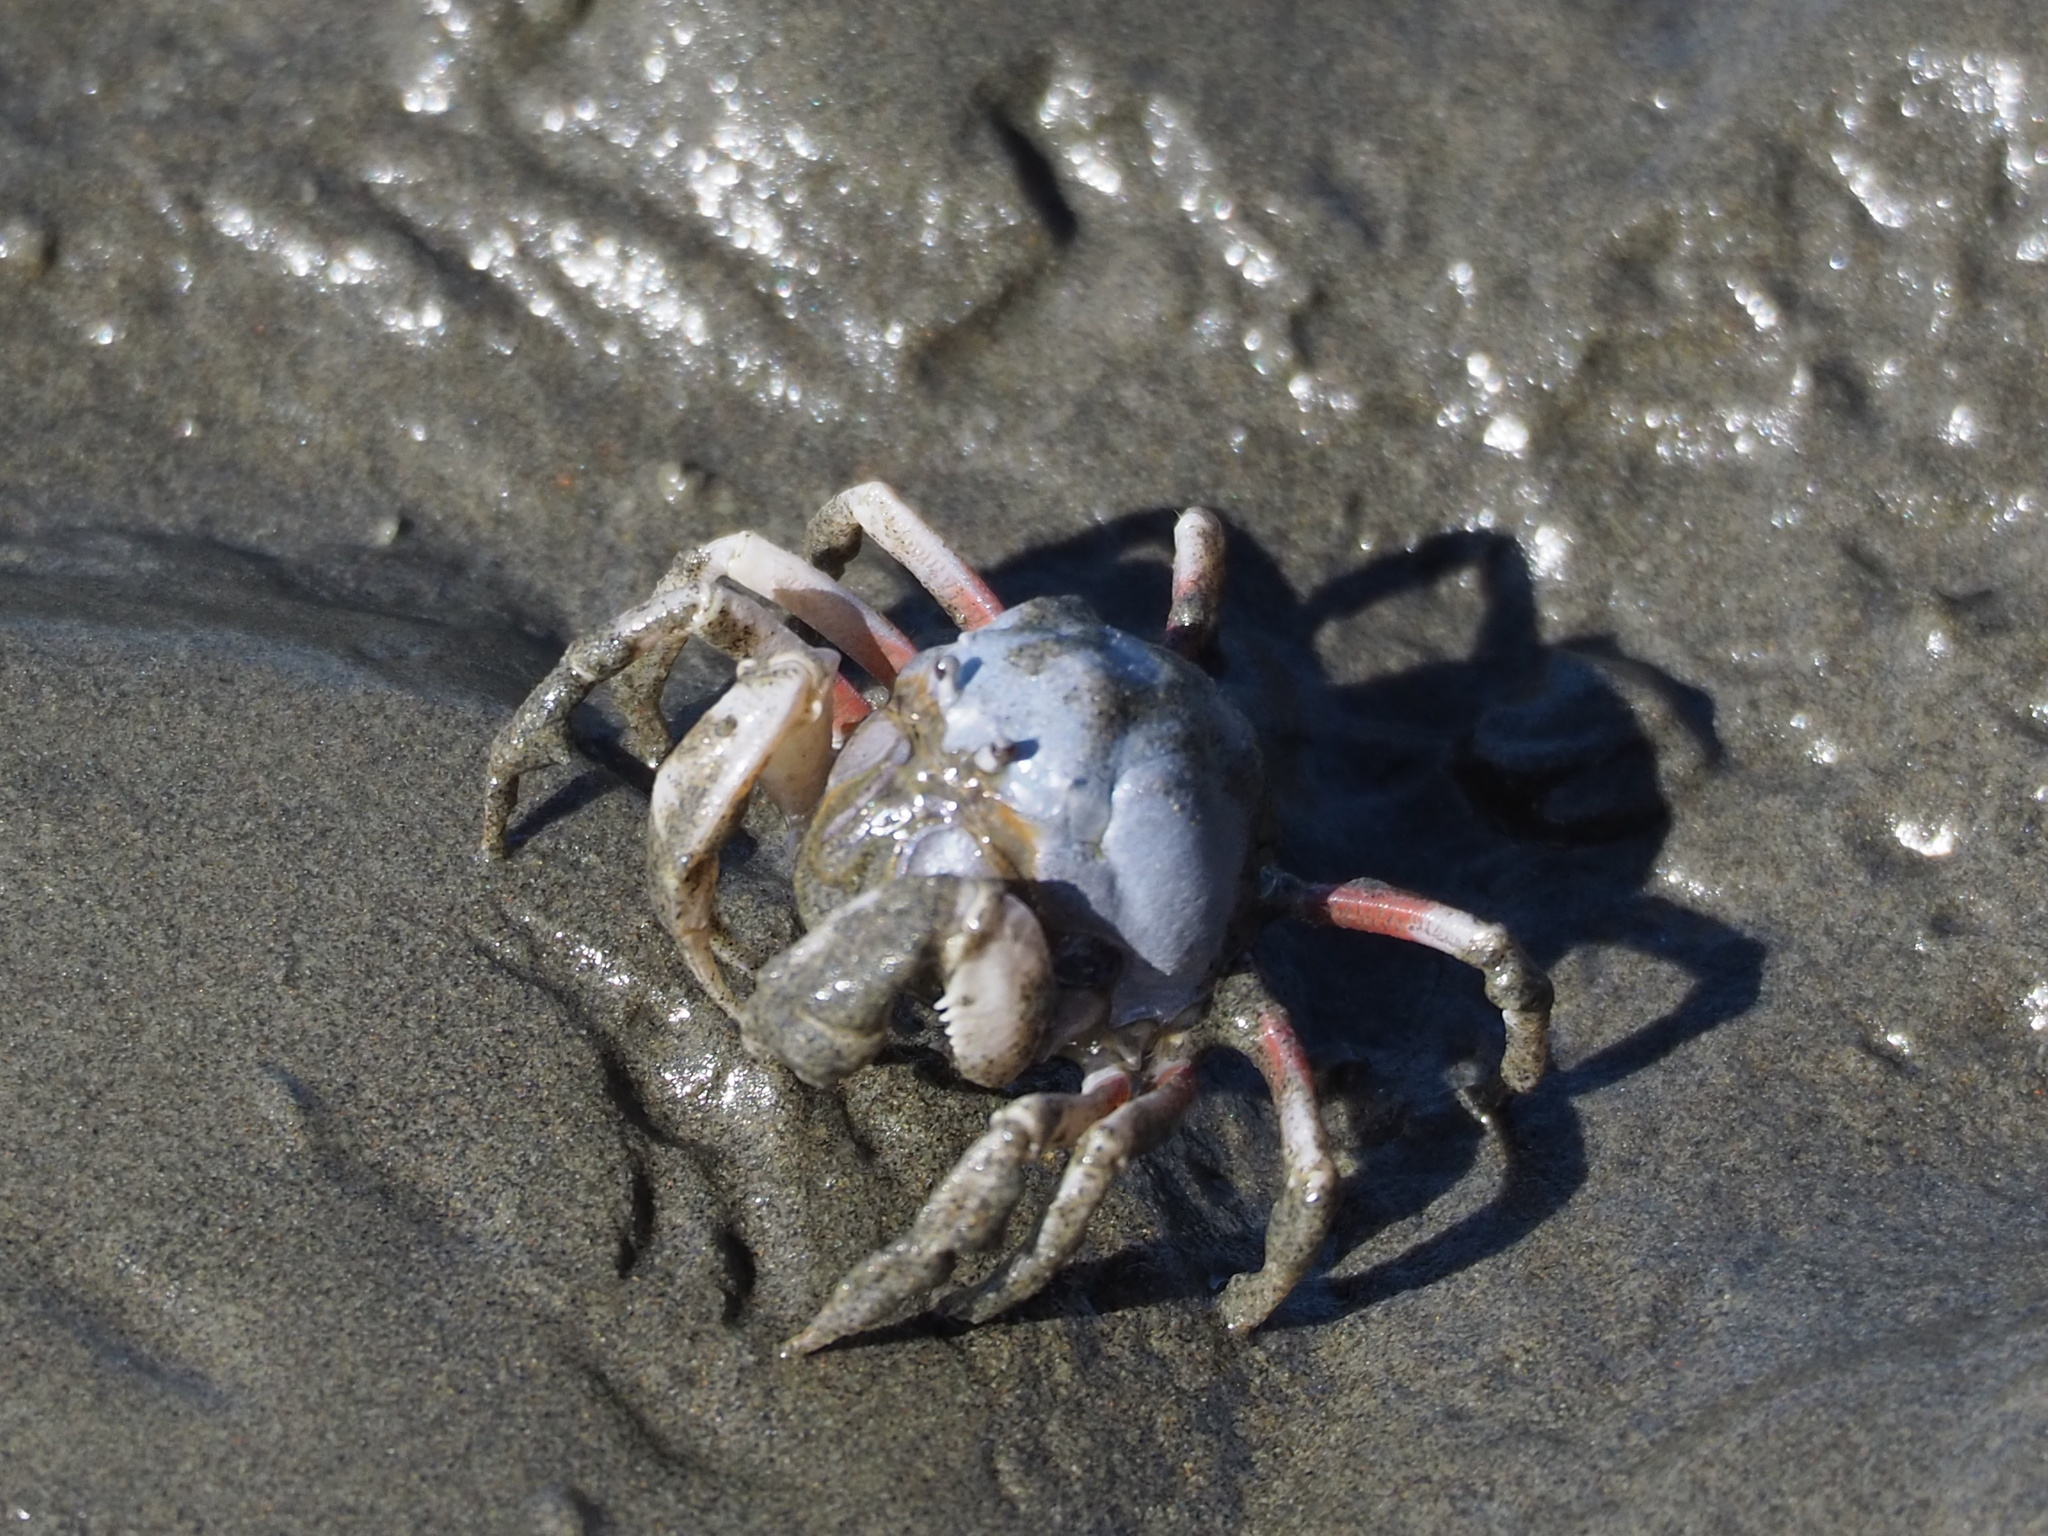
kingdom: Animalia
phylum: Arthropoda
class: Malacostraca
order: Decapoda
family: Mictyridae
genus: Mictyris
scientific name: Mictyris brevidactylus
